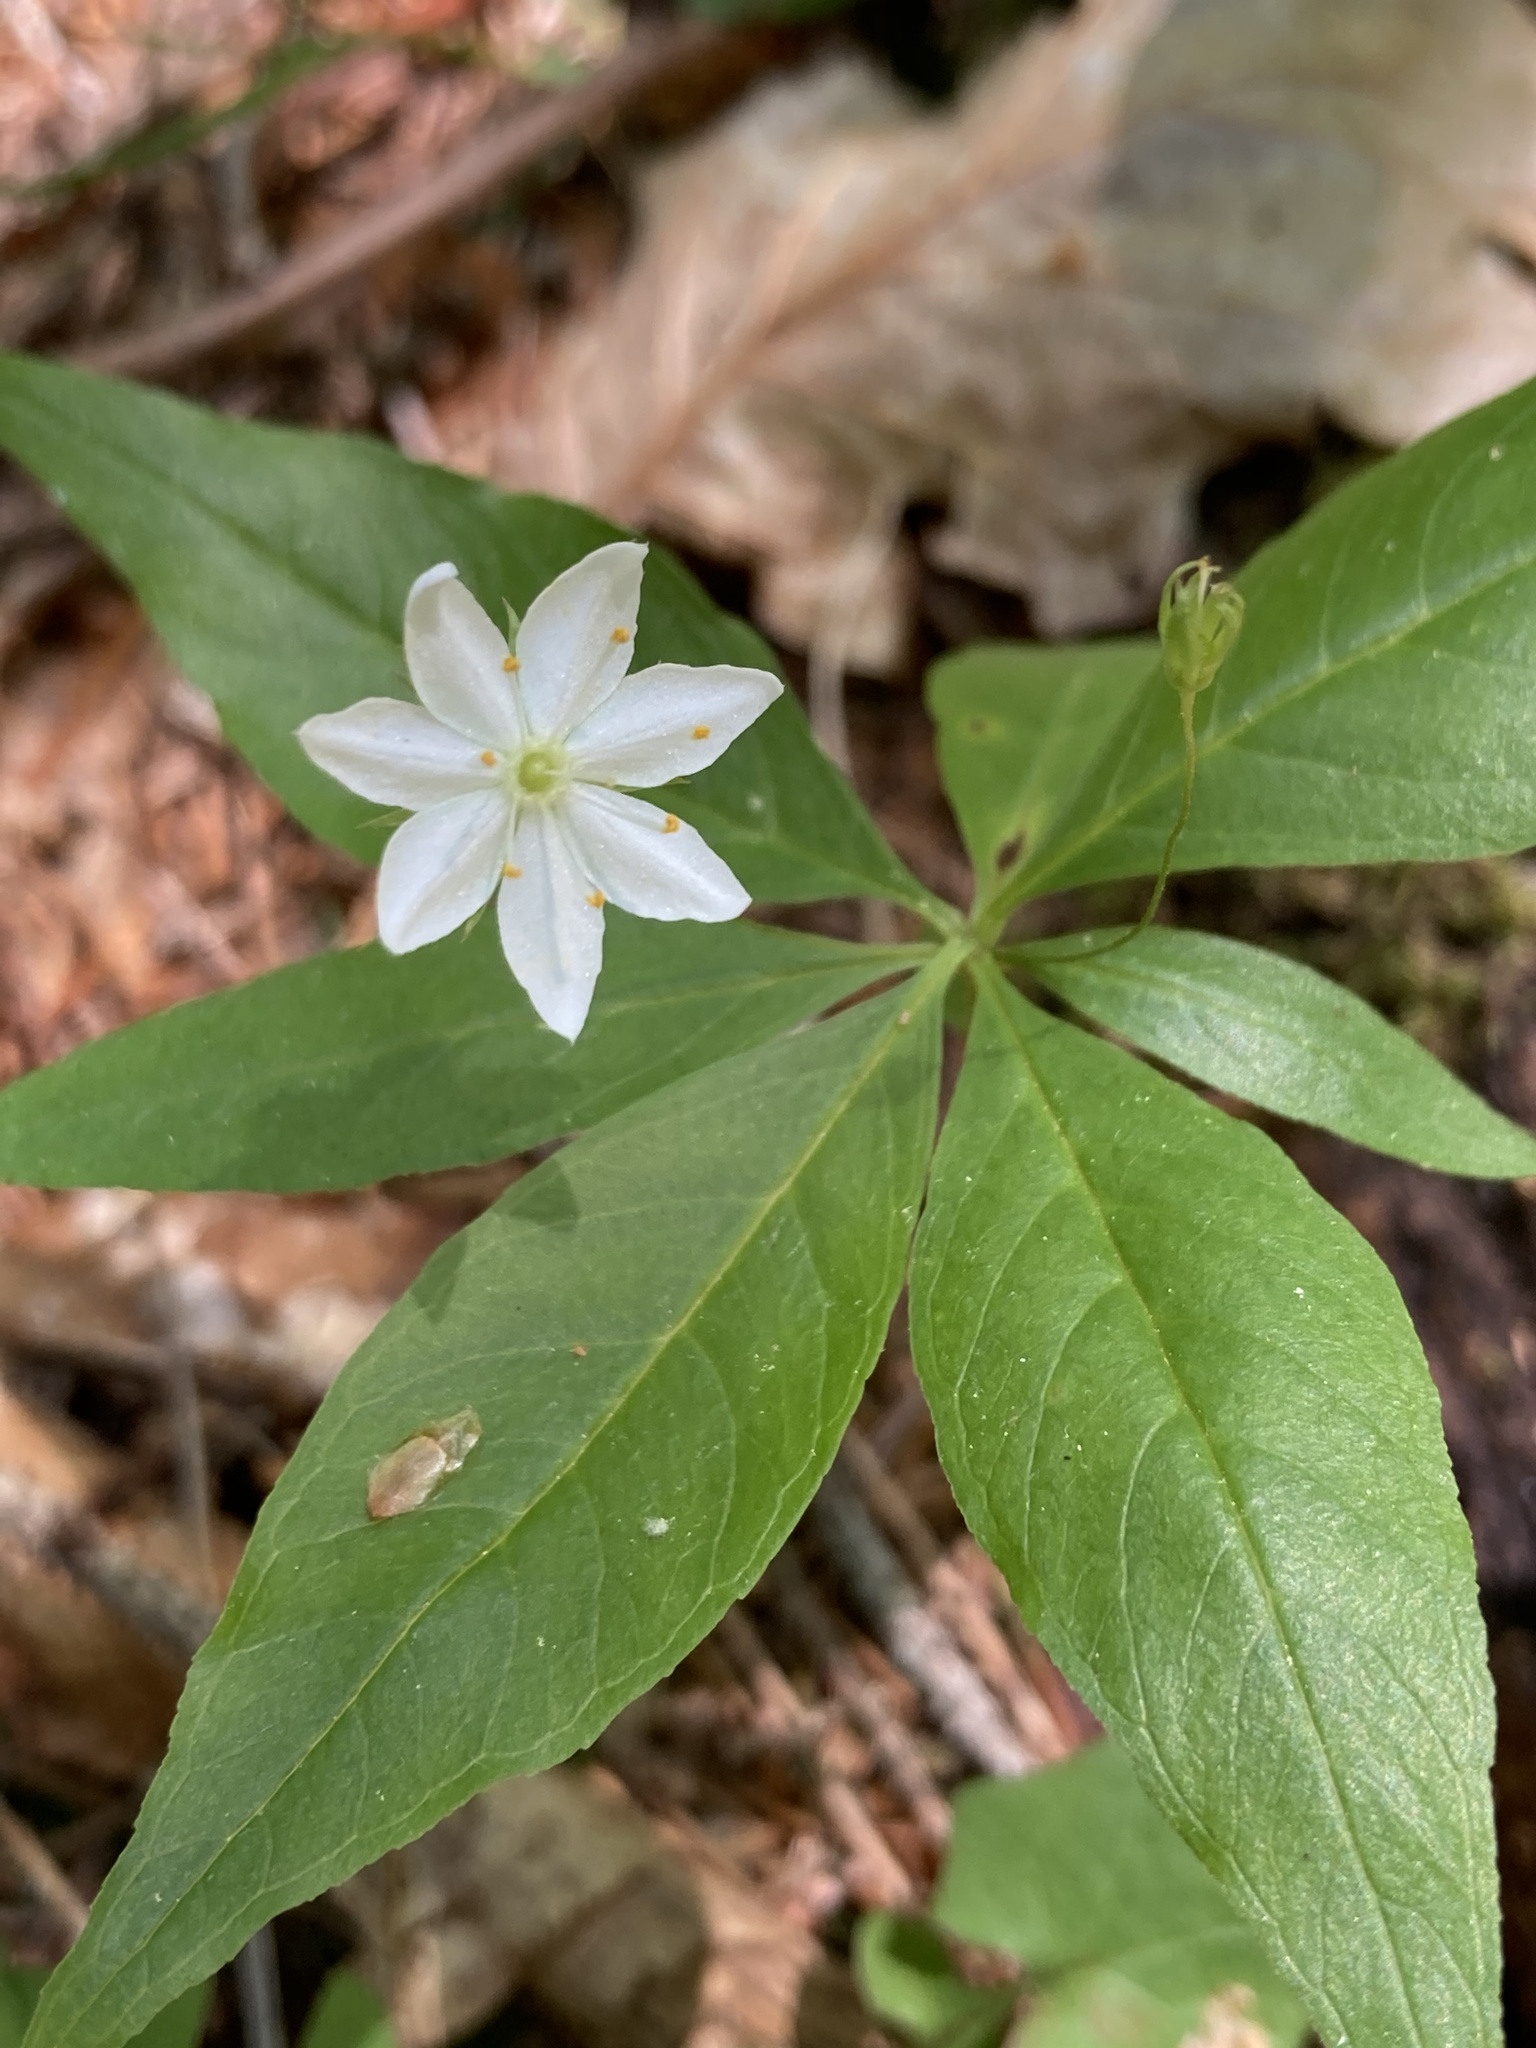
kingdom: Plantae
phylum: Tracheophyta
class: Magnoliopsida
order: Ericales
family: Primulaceae
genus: Lysimachia
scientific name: Lysimachia borealis
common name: American starflower
